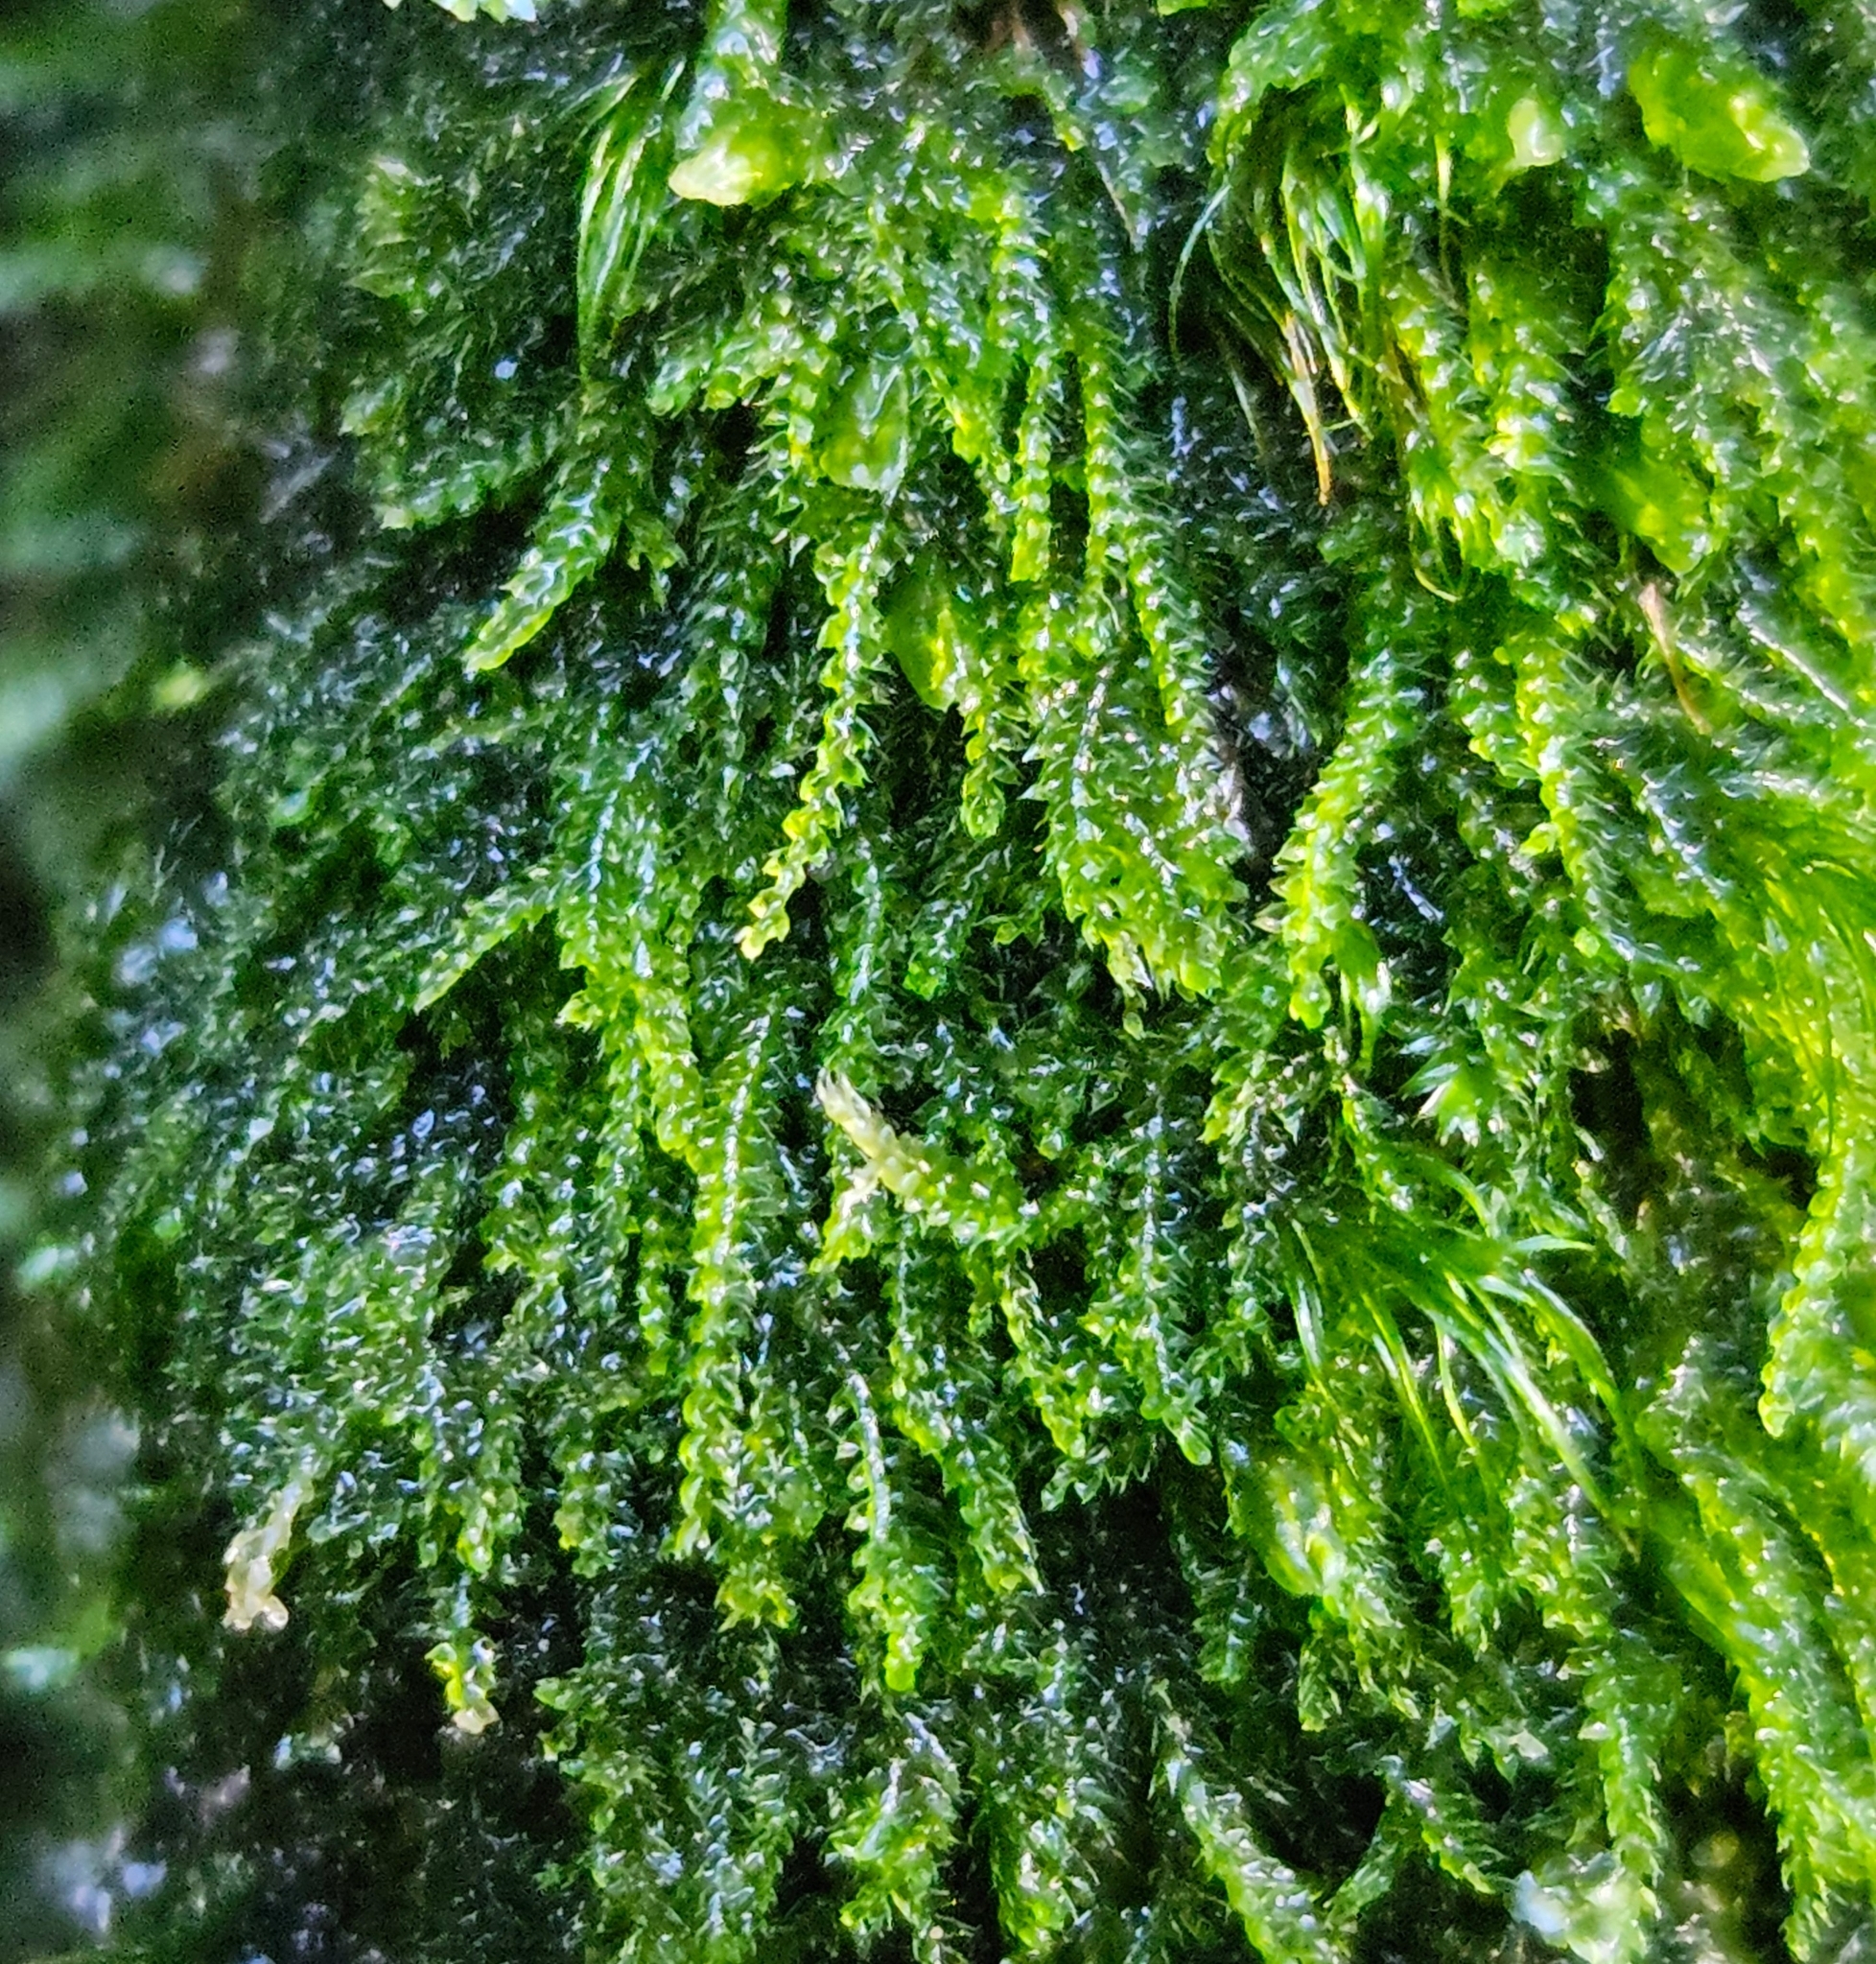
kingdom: Plantae
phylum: Marchantiophyta
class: Jungermanniopsida
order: Jungermanniales
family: Cephaloziaceae
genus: Cephalozia
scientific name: Cephalozia bicuspidata
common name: Two-horned pincerwort
